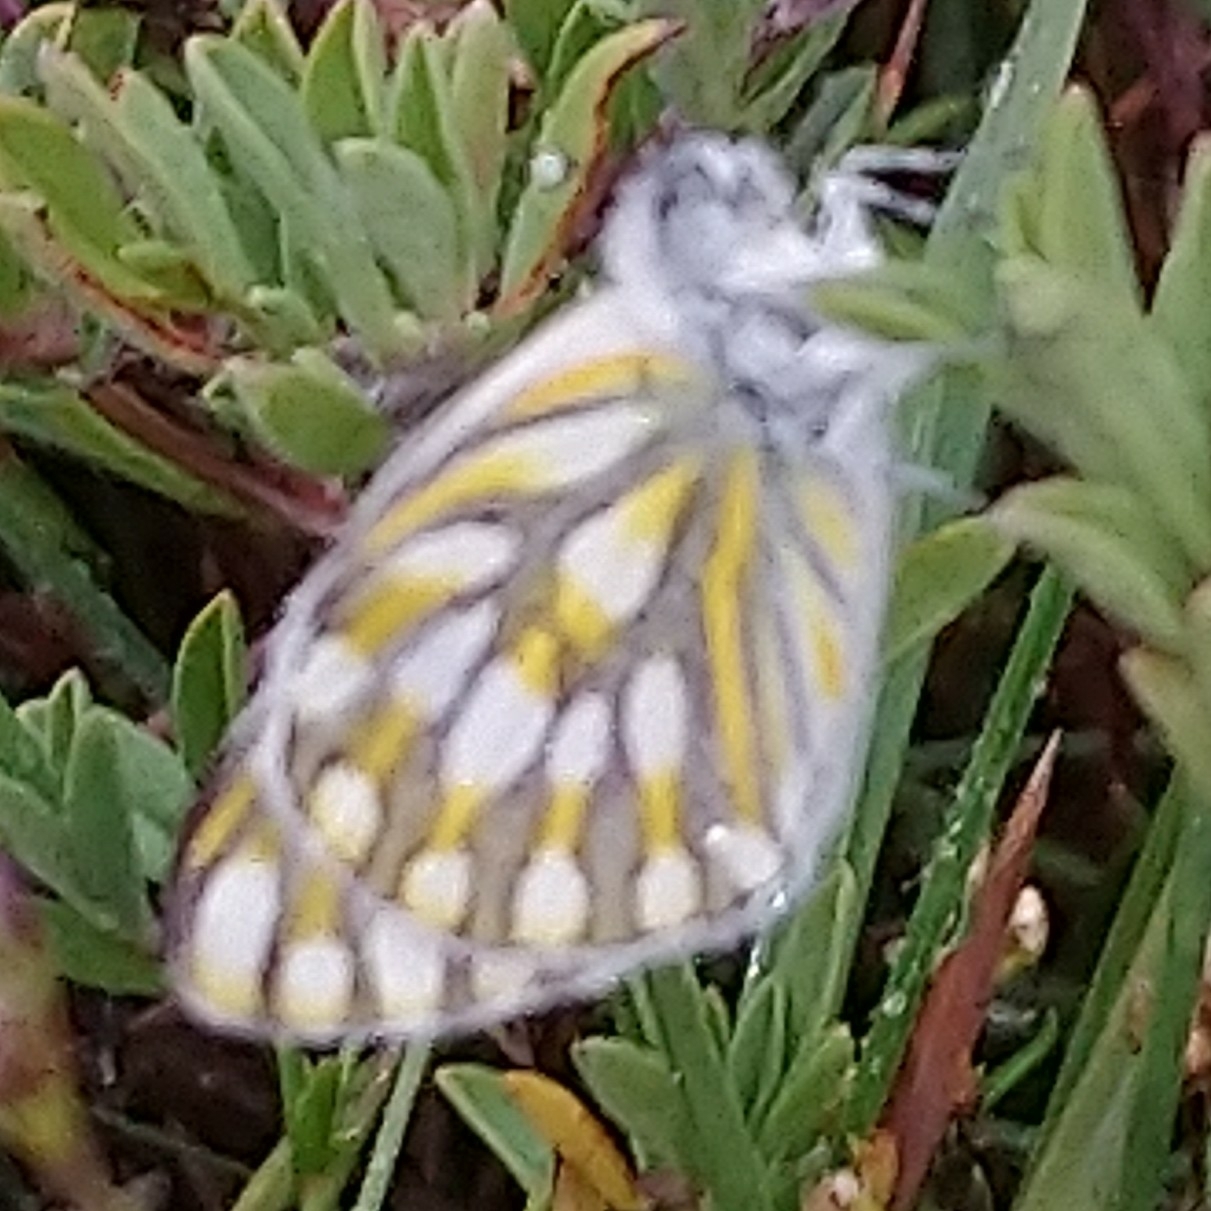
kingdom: Animalia
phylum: Arthropoda
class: Insecta
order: Lepidoptera
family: Pieridae
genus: Pontia
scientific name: Pontia helice
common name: Meadow white
